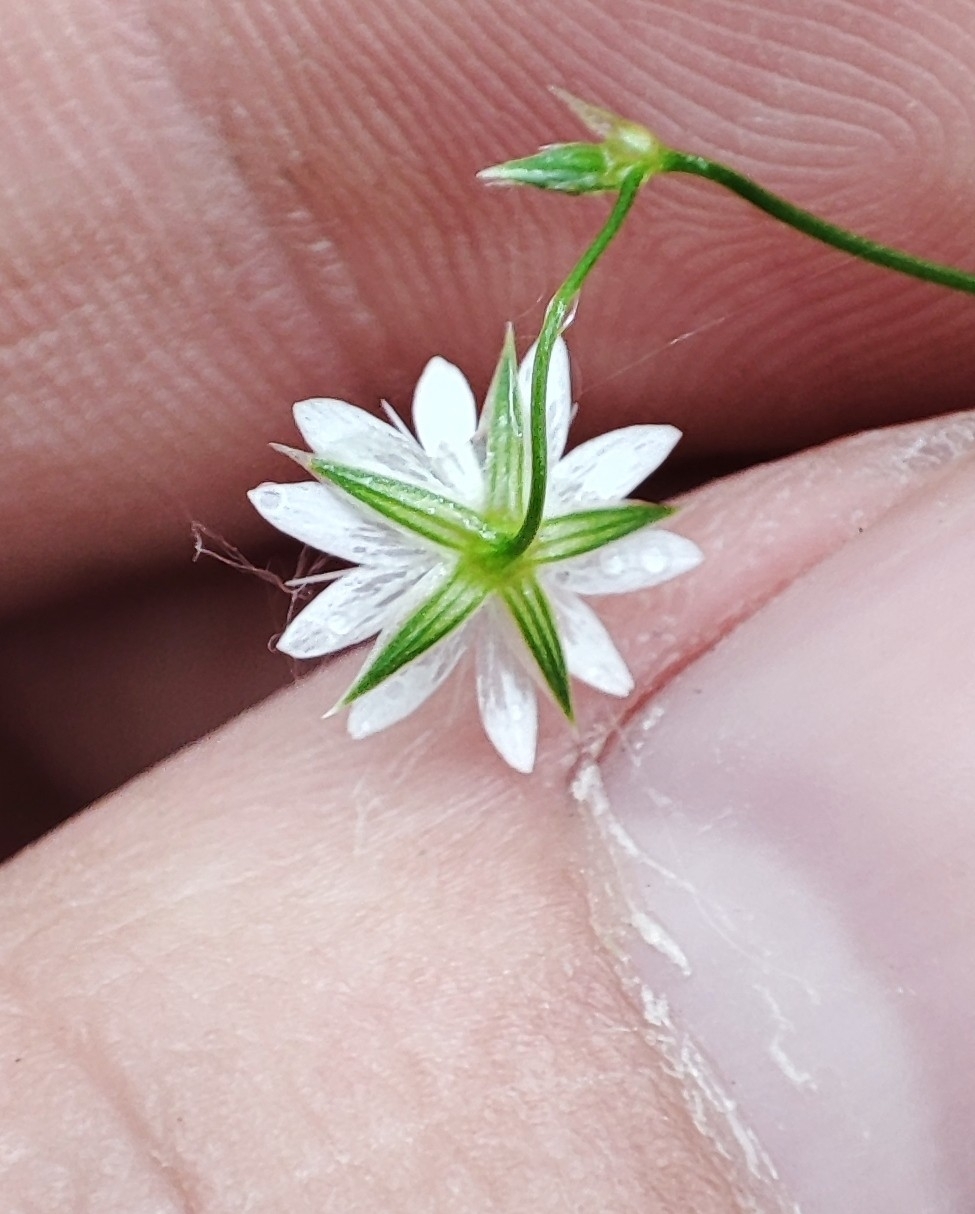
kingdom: Plantae
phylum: Tracheophyta
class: Magnoliopsida
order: Caryophyllales
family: Caryophyllaceae
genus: Stellaria
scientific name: Stellaria graminea
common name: Grass-like starwort
